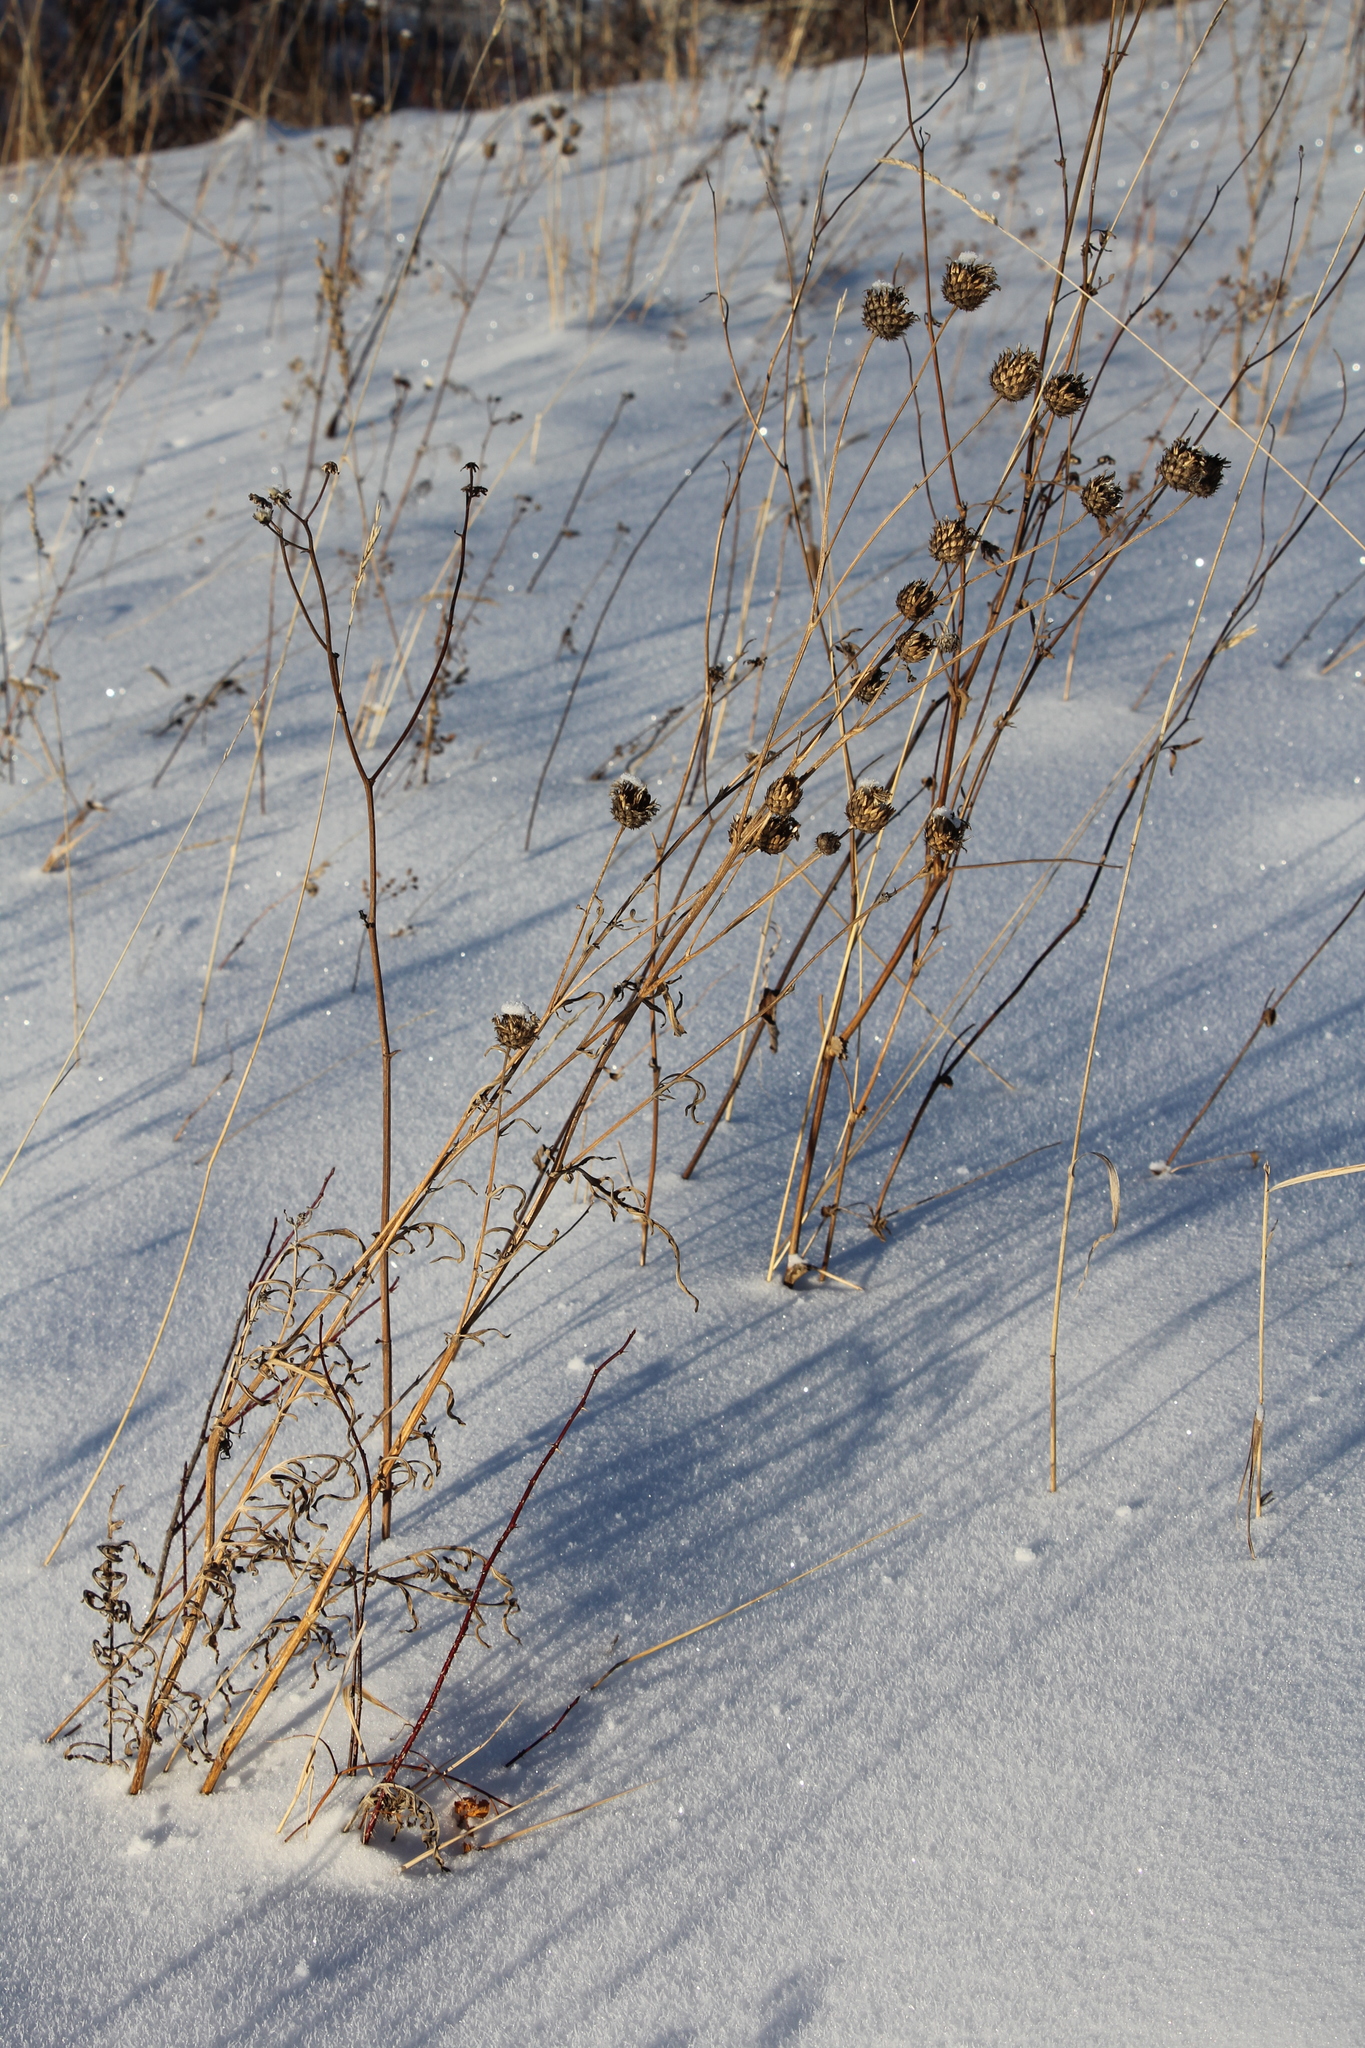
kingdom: Plantae
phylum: Tracheophyta
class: Magnoliopsida
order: Asterales
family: Asteraceae
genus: Centaurea
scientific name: Centaurea scabiosa
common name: Greater knapweed
